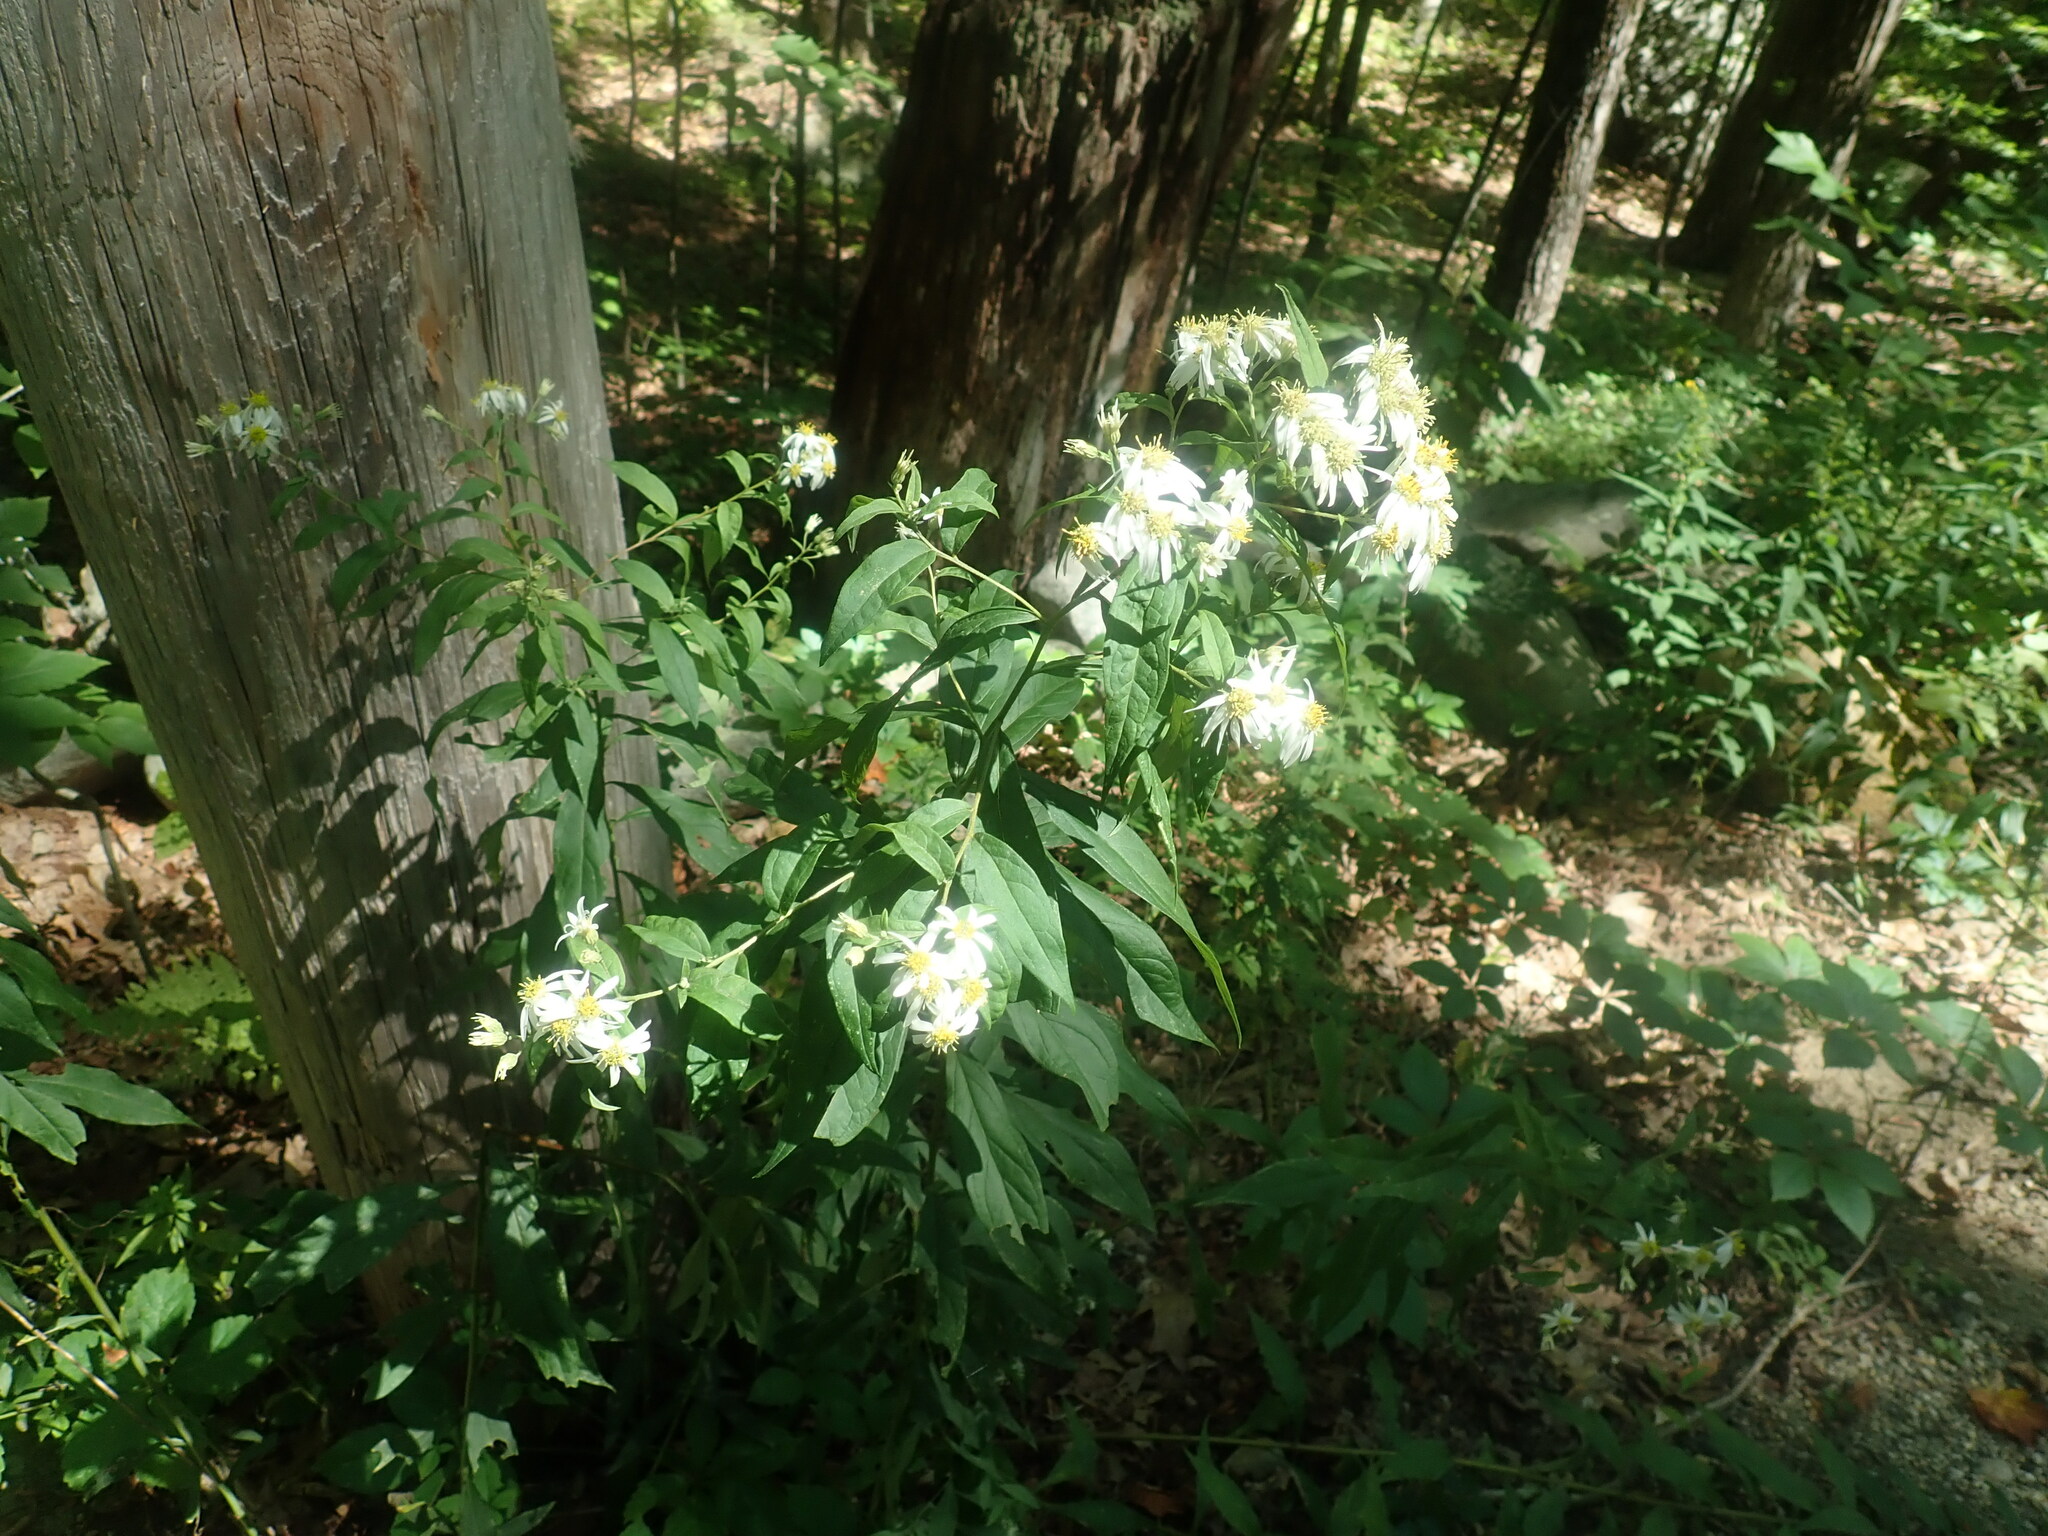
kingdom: Plantae
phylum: Tracheophyta
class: Magnoliopsida
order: Asterales
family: Asteraceae
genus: Doellingeria
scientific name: Doellingeria umbellata
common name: Flat-top white aster
